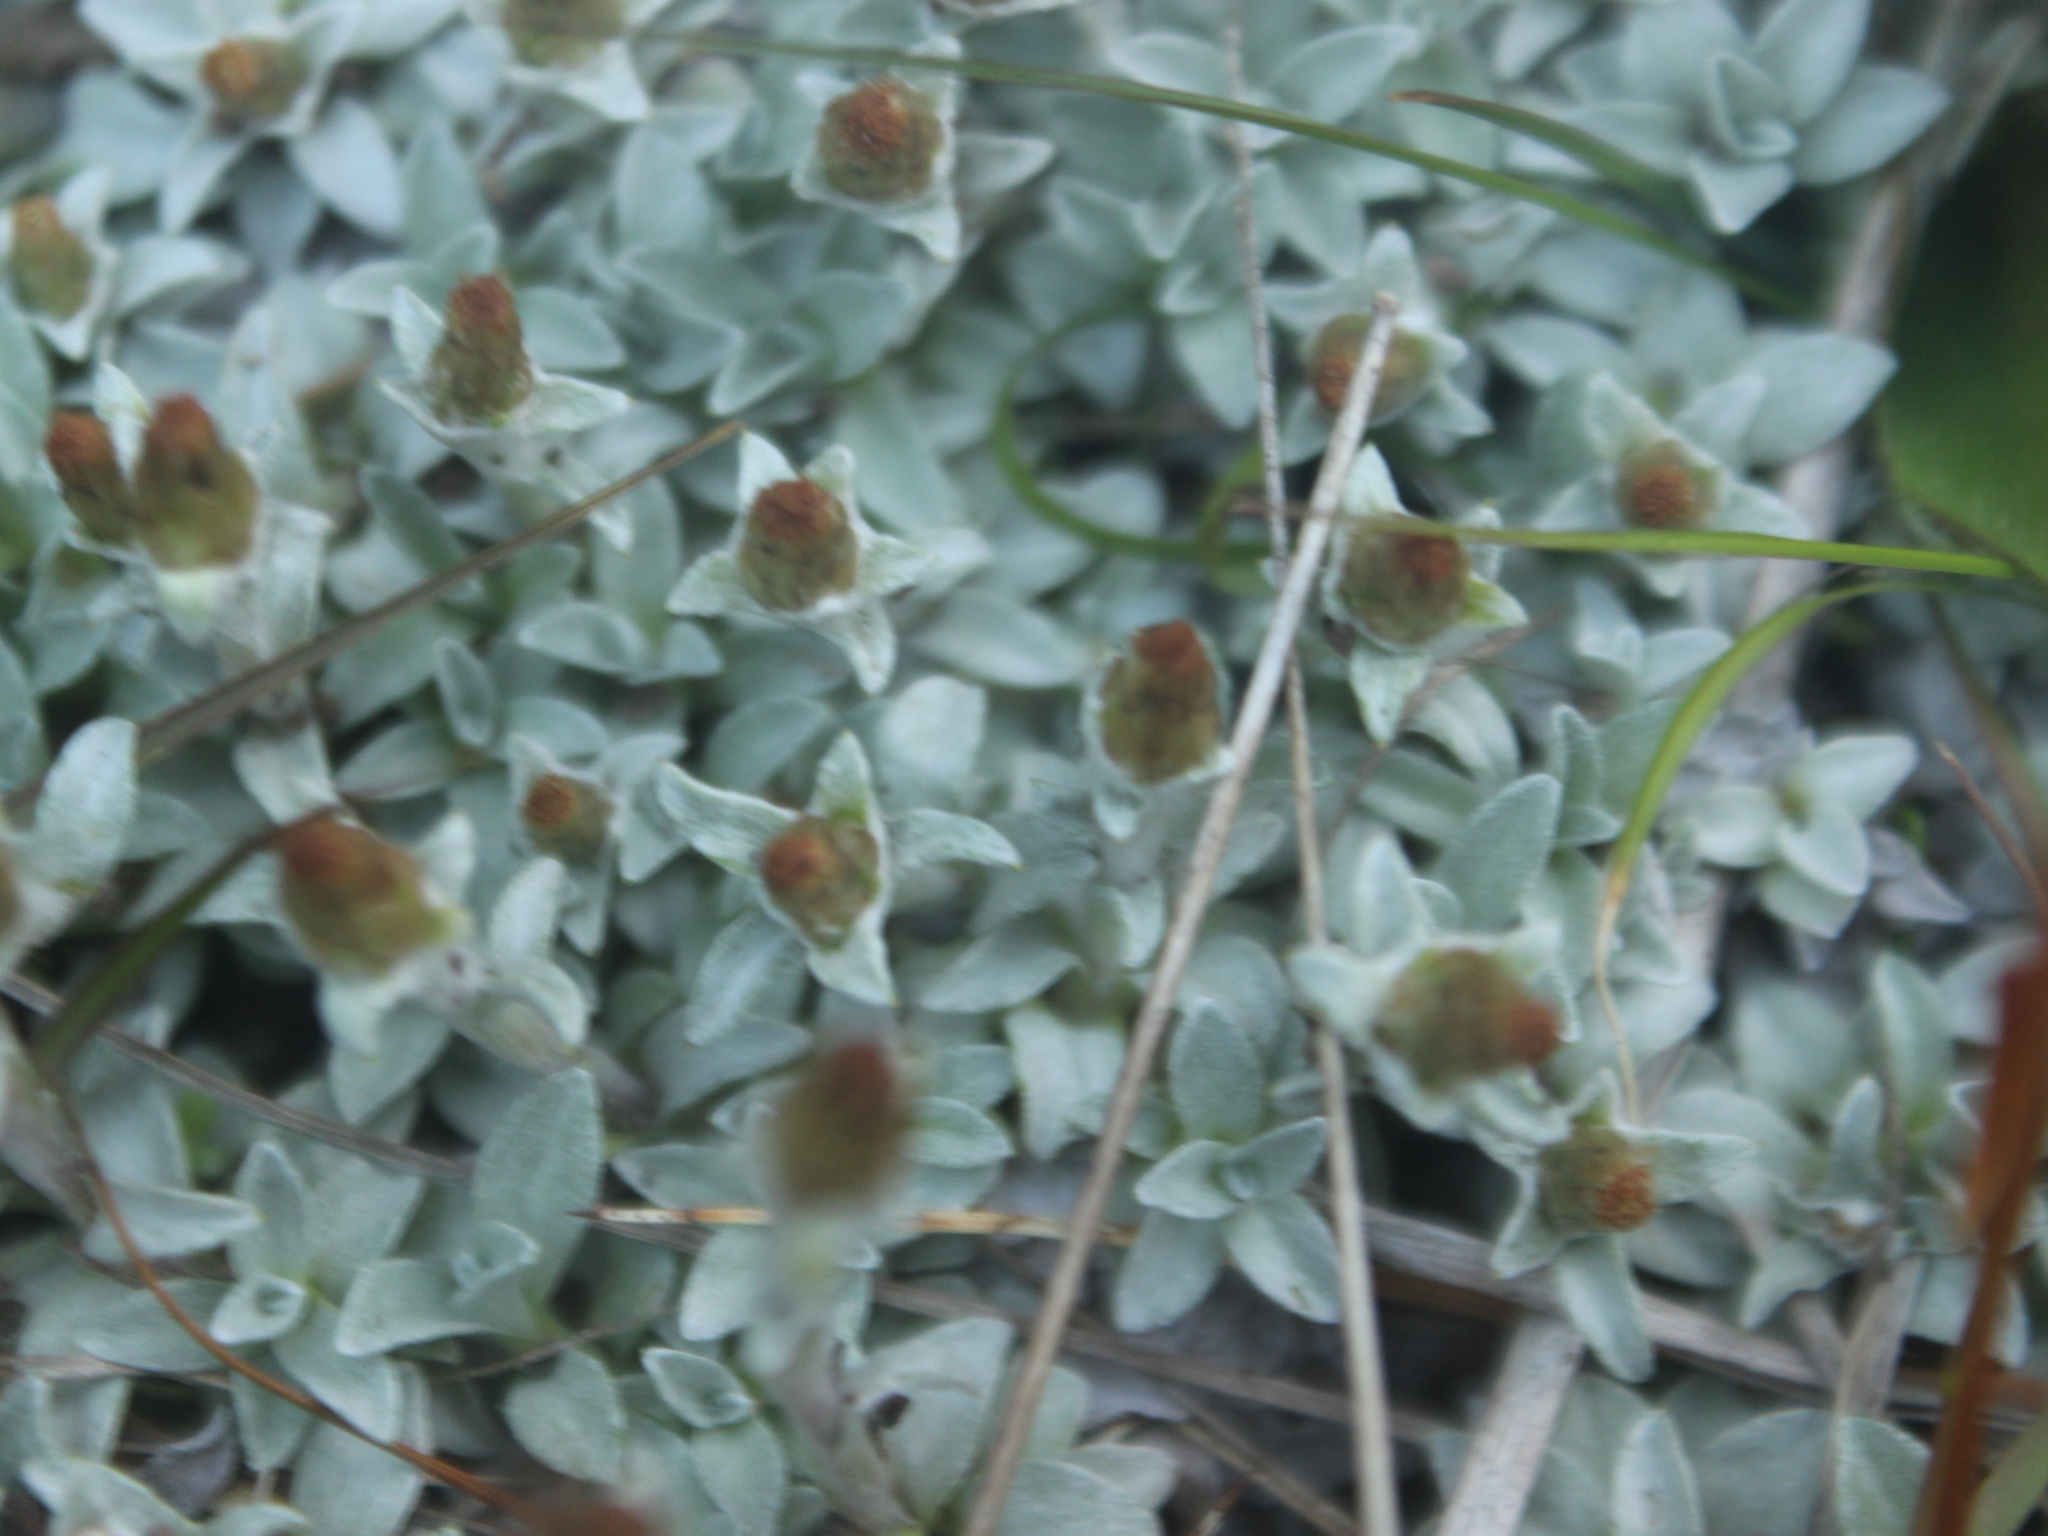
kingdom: Plantae
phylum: Tracheophyta
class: Magnoliopsida
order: Asterales
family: Asteraceae
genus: Argyrotegium
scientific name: Argyrotegium mackayi
